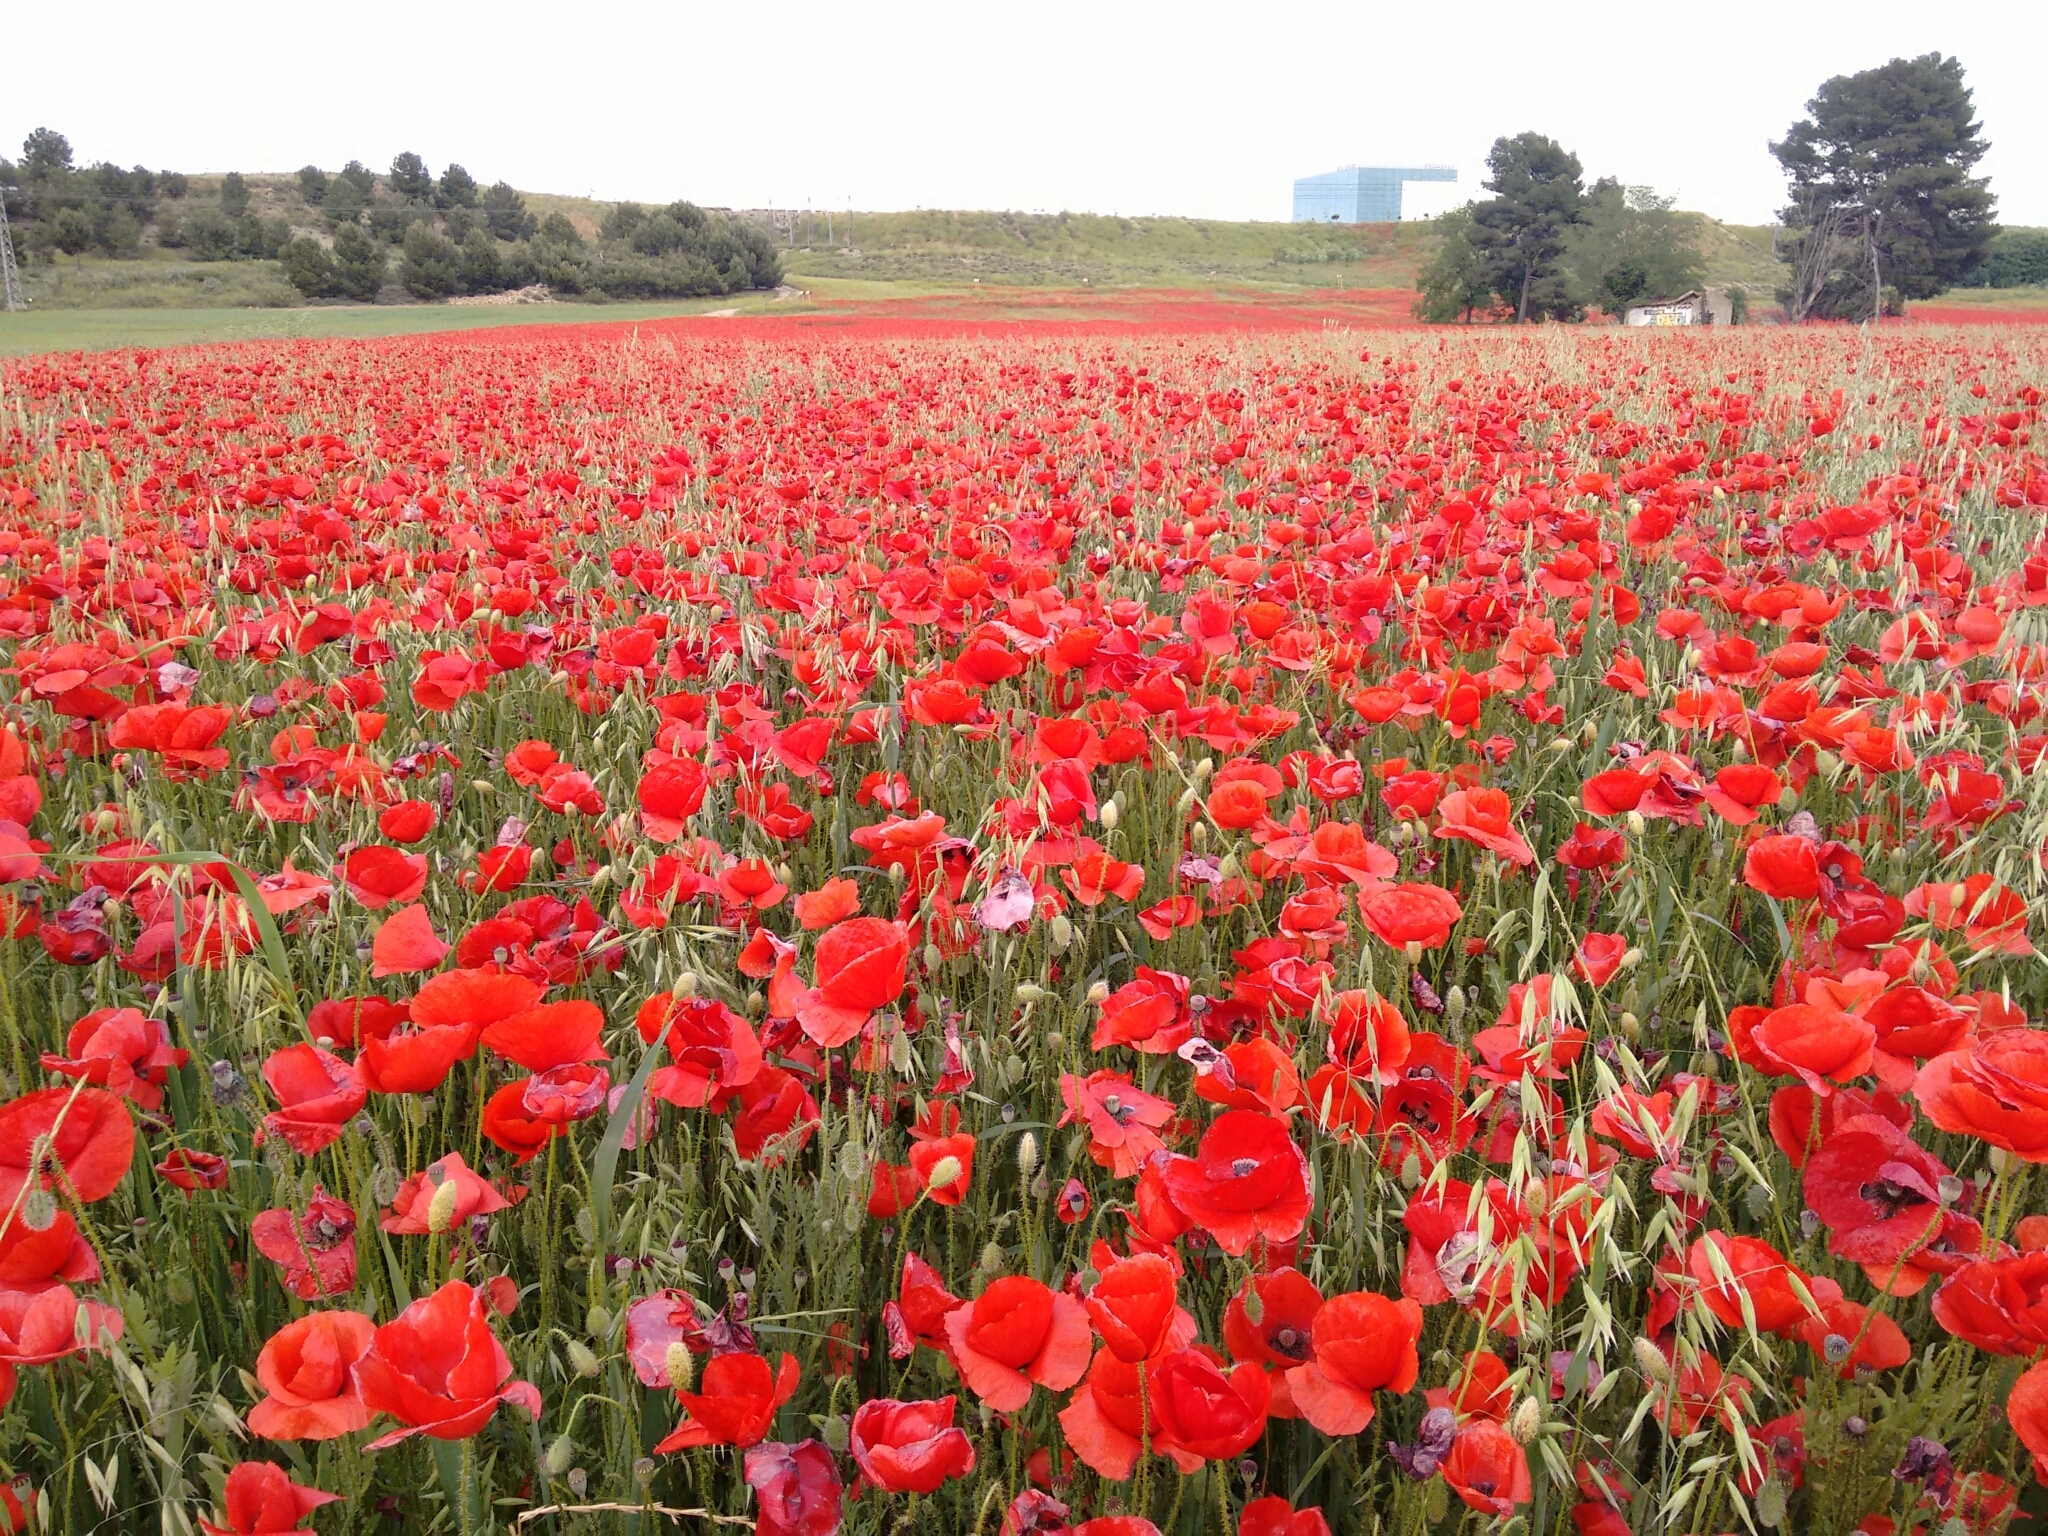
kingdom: Plantae
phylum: Tracheophyta
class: Magnoliopsida
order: Ranunculales
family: Papaveraceae
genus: Papaver
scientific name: Papaver rhoeas
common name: Corn poppy
